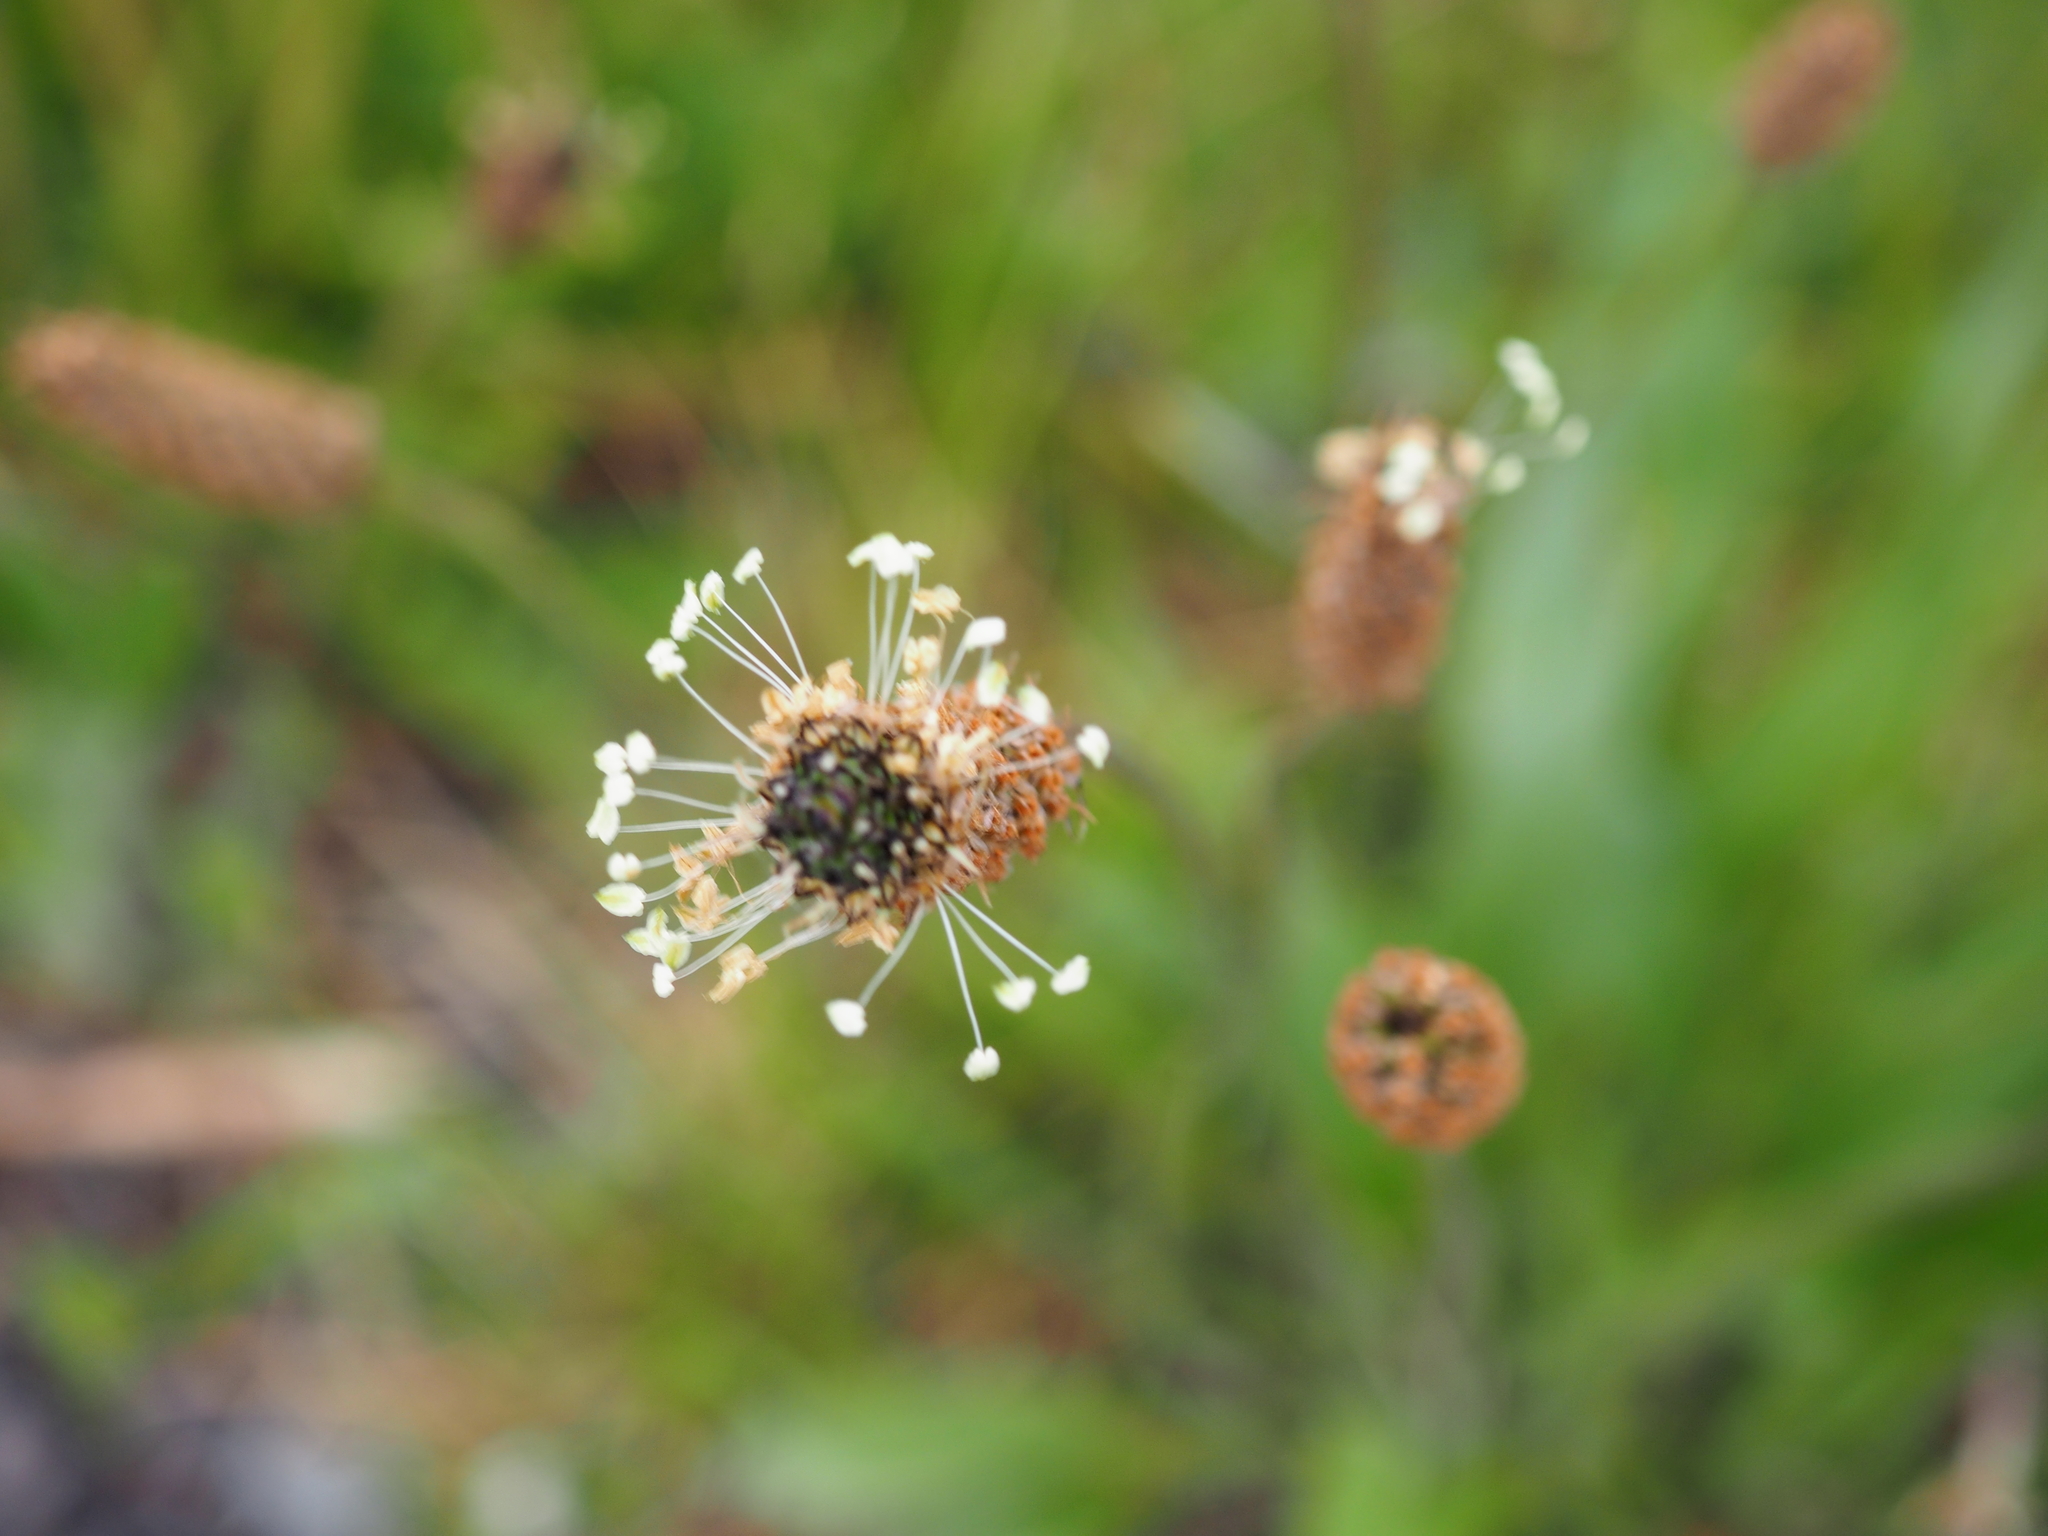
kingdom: Plantae
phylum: Tracheophyta
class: Magnoliopsida
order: Lamiales
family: Plantaginaceae
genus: Plantago
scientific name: Plantago lanceolata
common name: Ribwort plantain
